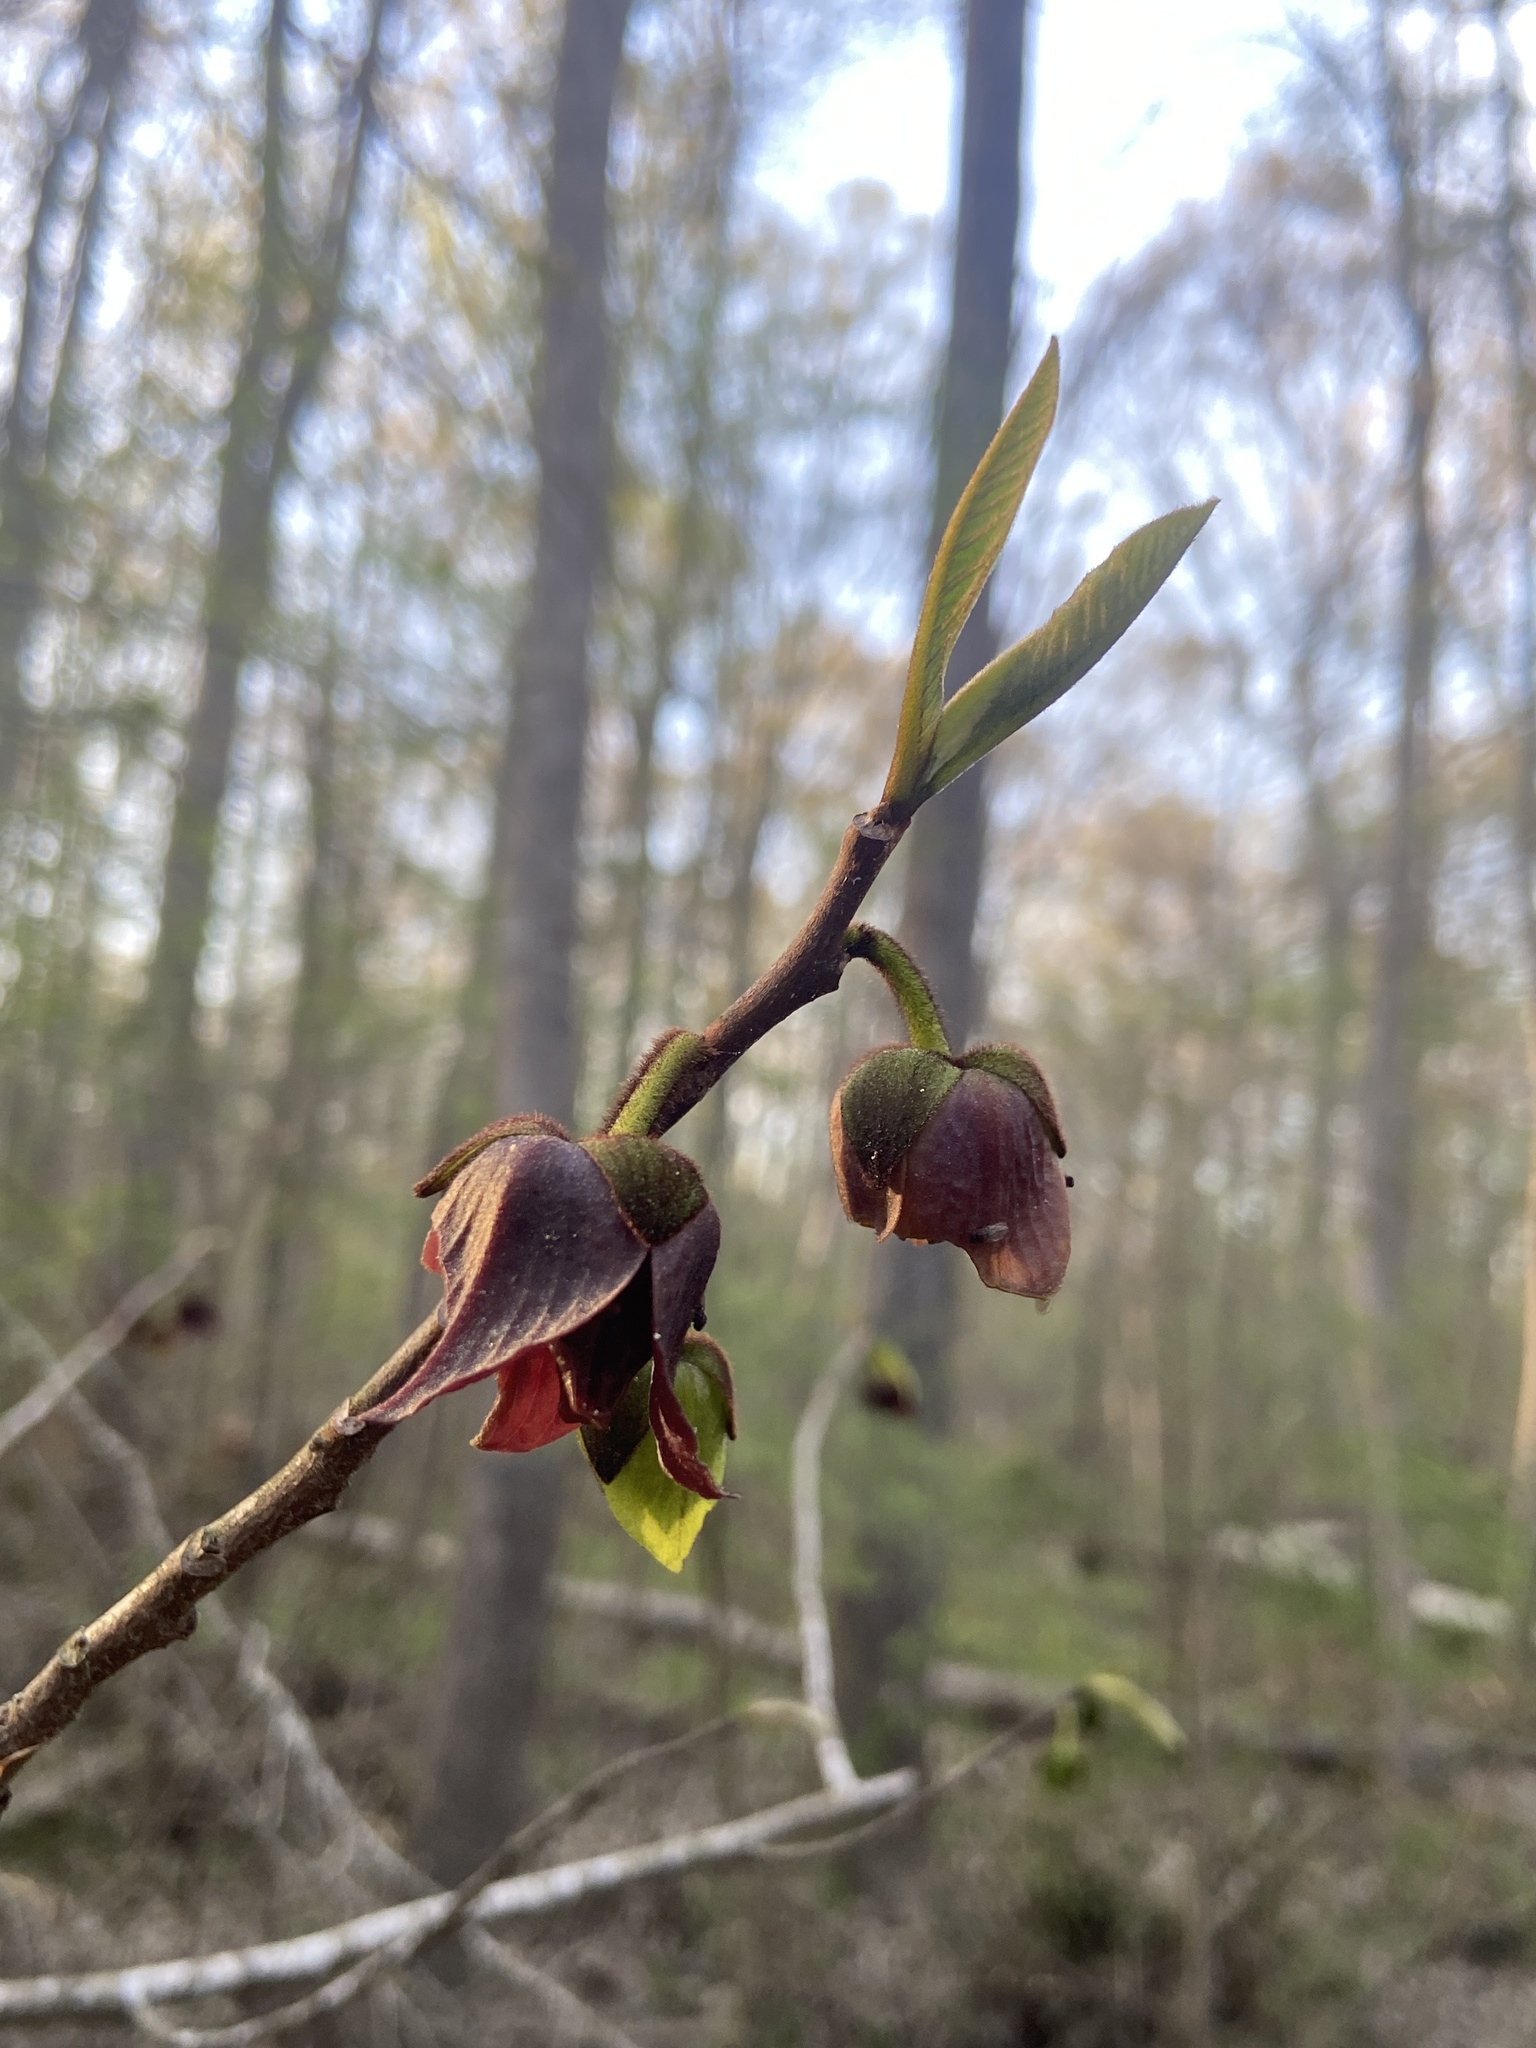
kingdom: Plantae
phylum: Tracheophyta
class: Magnoliopsida
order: Magnoliales
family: Annonaceae
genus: Asimina
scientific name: Asimina triloba
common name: Dog-banana
